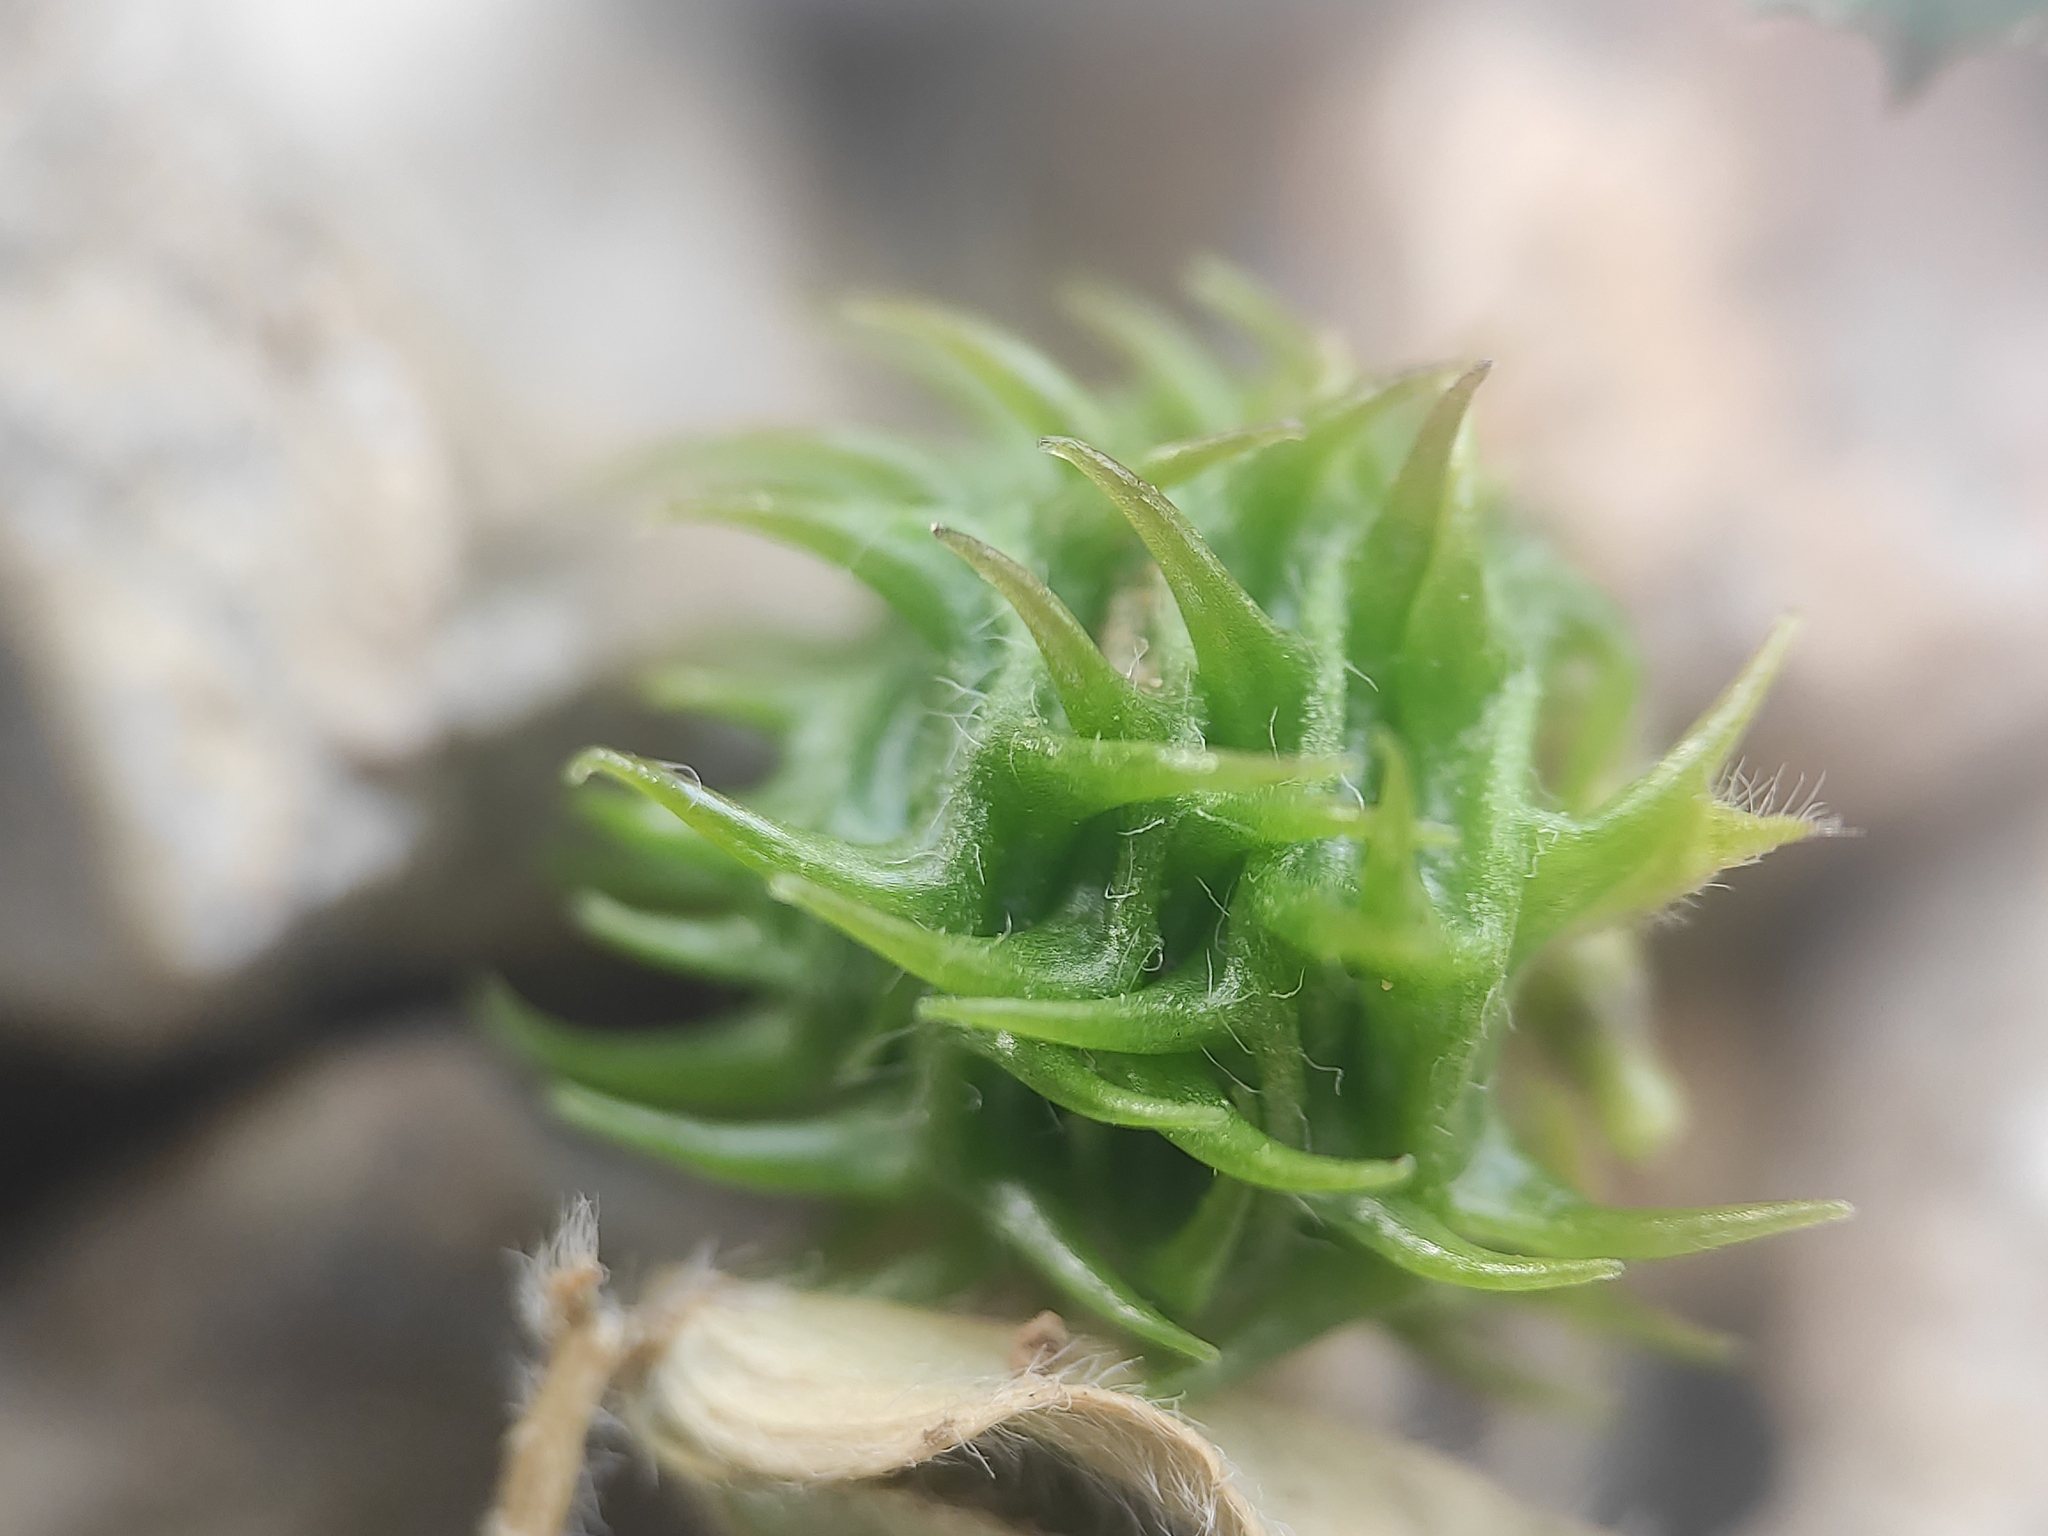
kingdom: Plantae
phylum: Tracheophyta
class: Magnoliopsida
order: Fabales
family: Fabaceae
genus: Medicago
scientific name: Medicago truncatula
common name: Strong-spined medick
